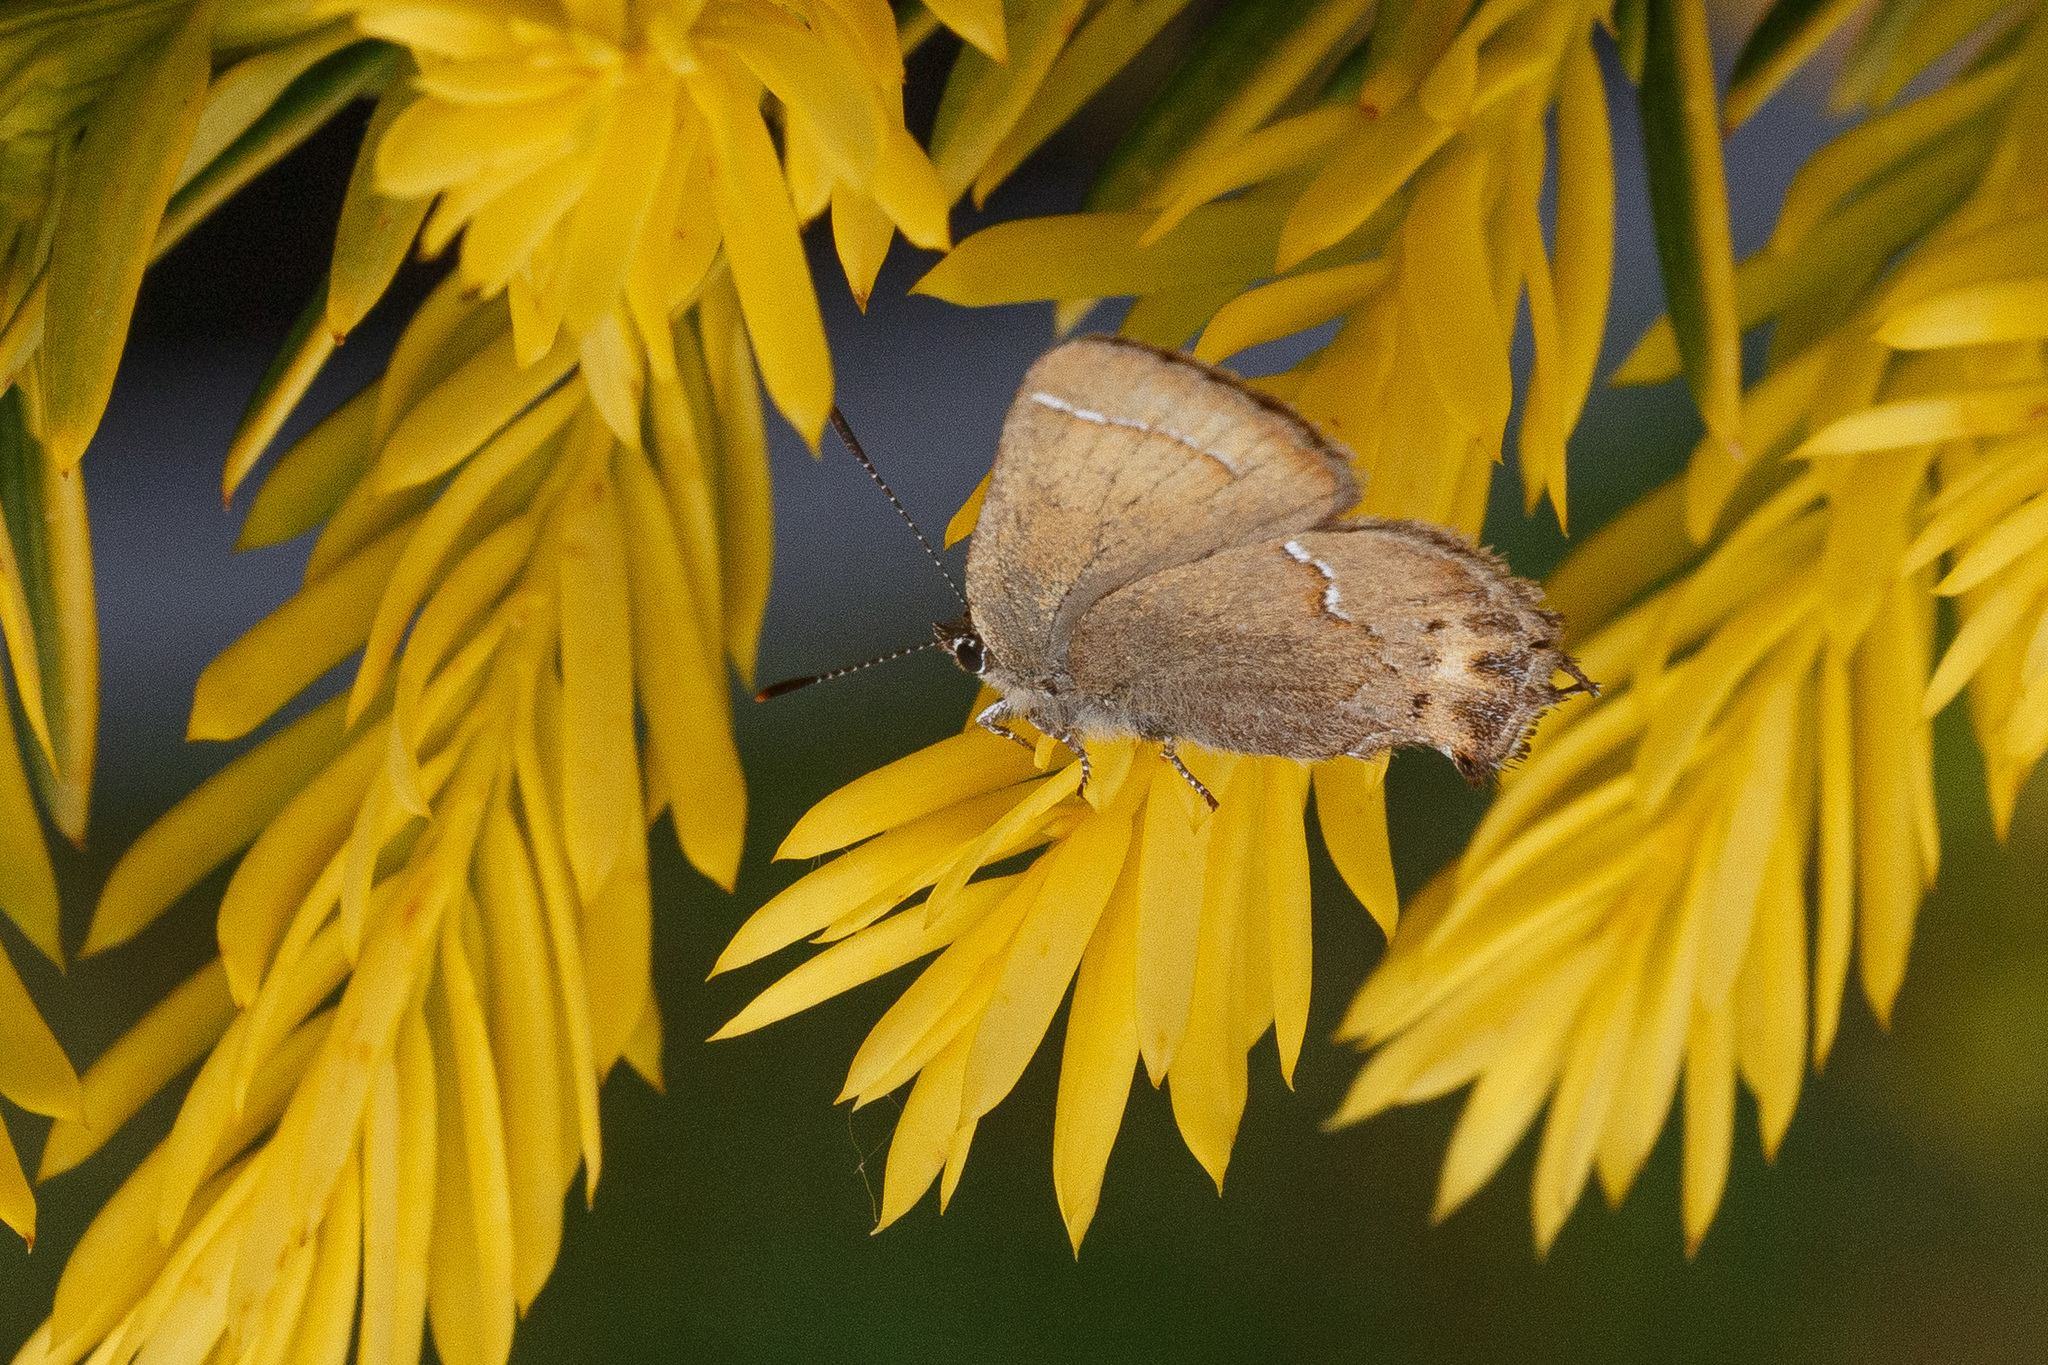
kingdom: Animalia
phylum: Arthropoda
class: Insecta
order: Lepidoptera
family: Lycaenidae
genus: Mitoura
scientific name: Mitoura gryneus
